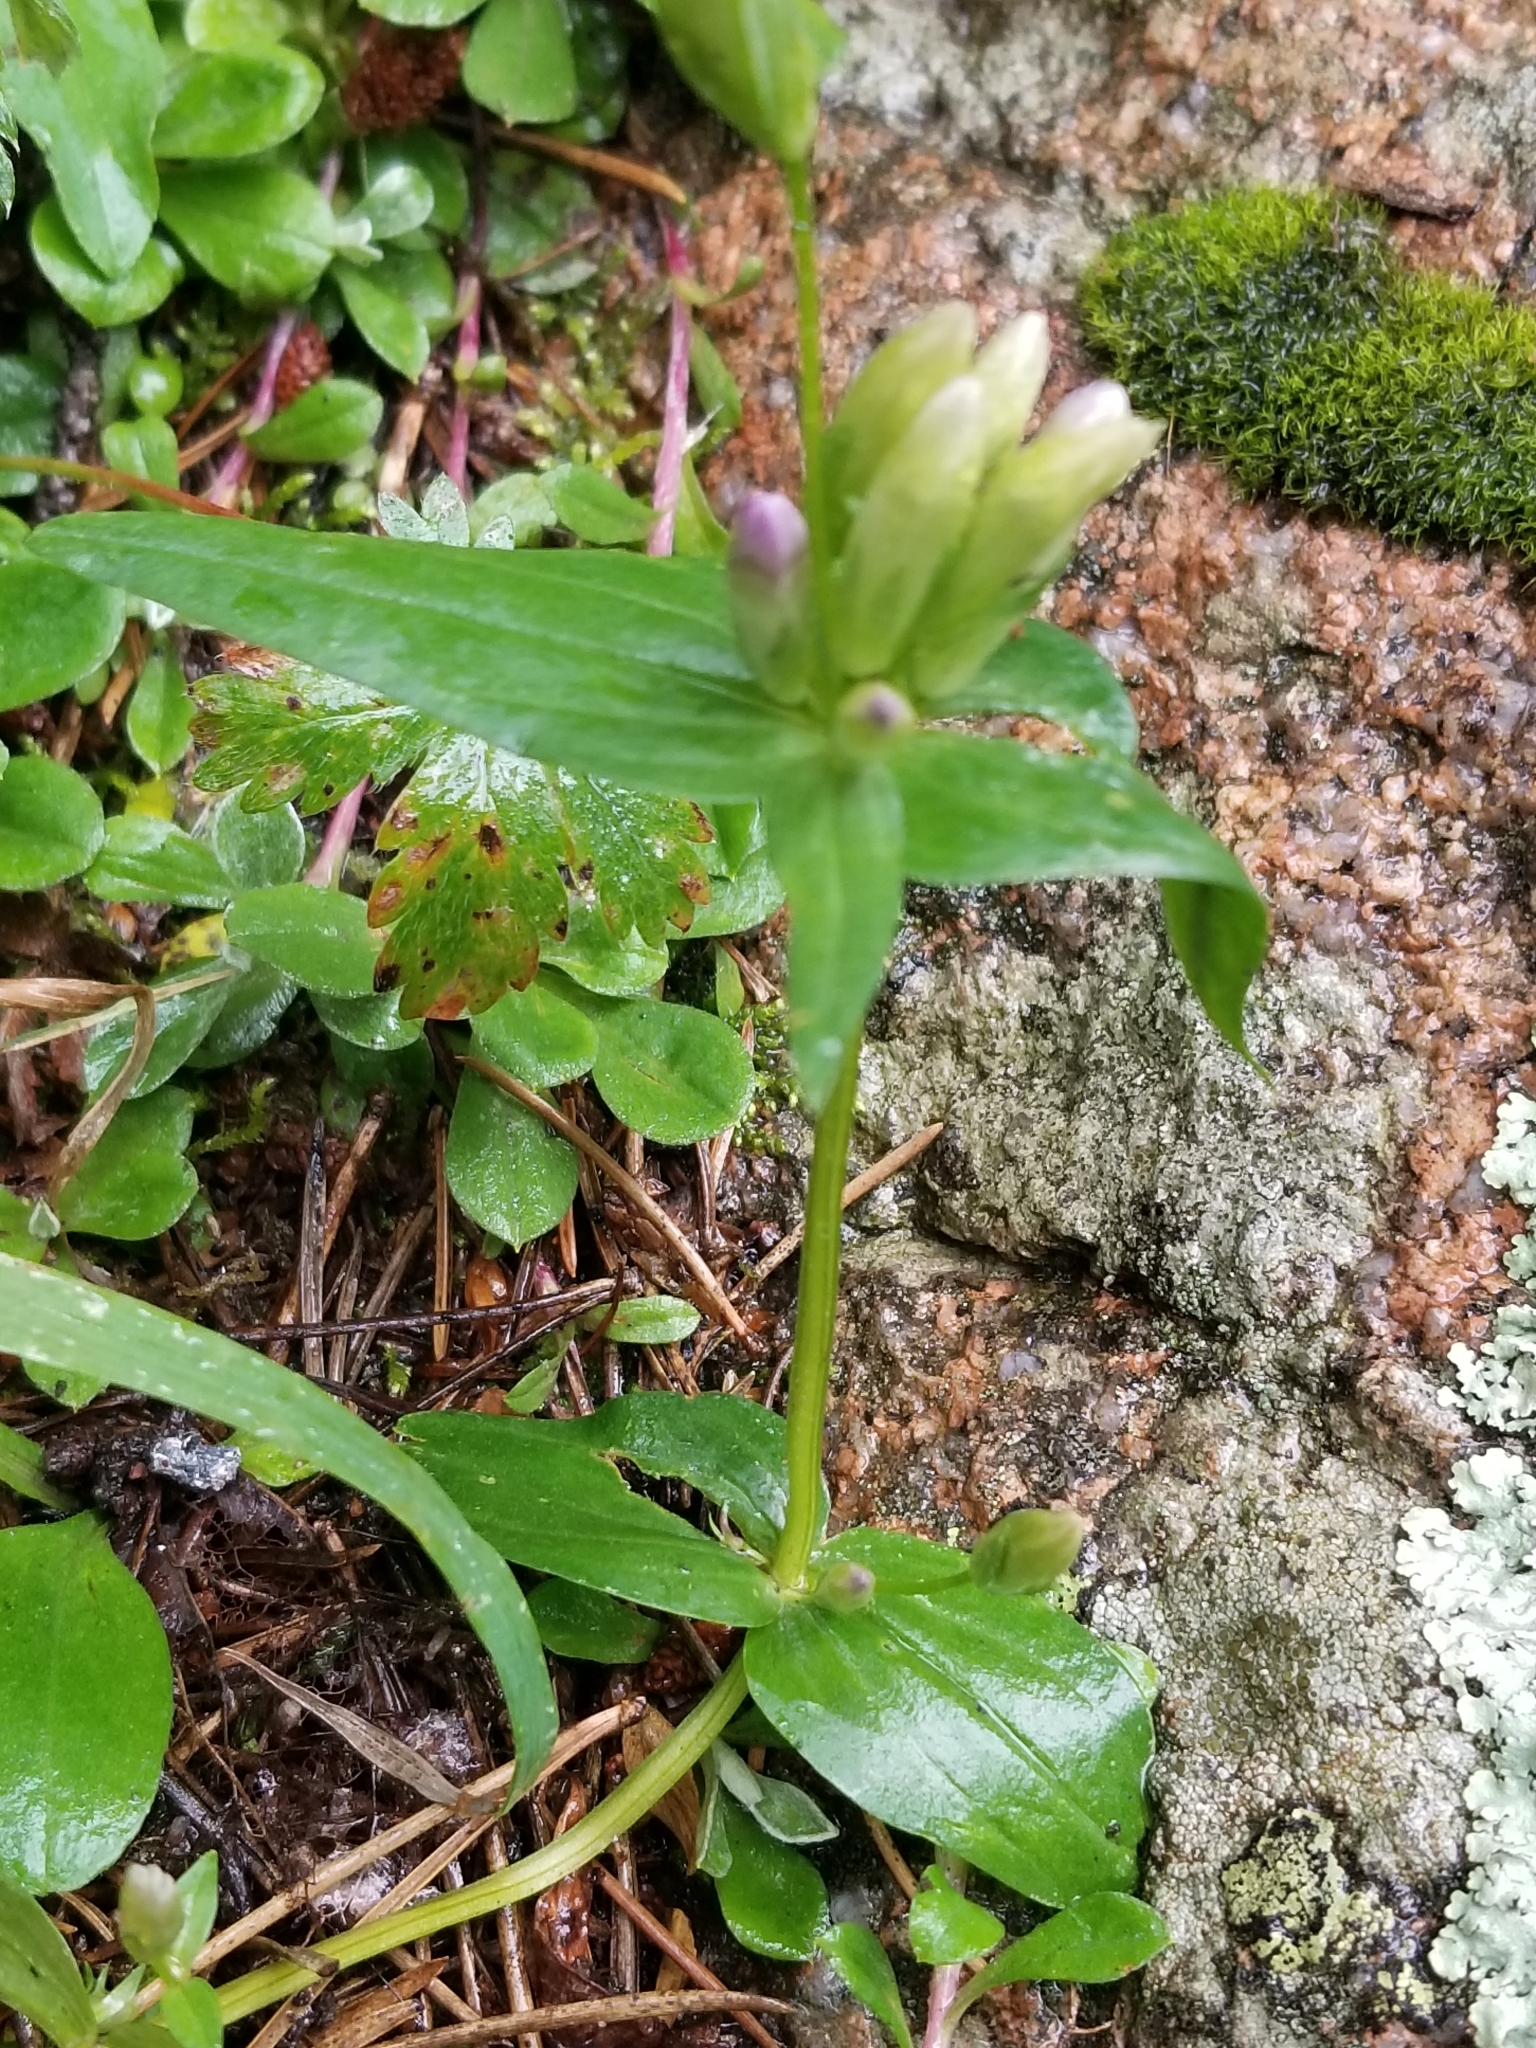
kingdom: Plantae
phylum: Tracheophyta
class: Magnoliopsida
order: Gentianales
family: Gentianaceae
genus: Gentianella
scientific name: Gentianella amarella
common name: Autumn gentian
